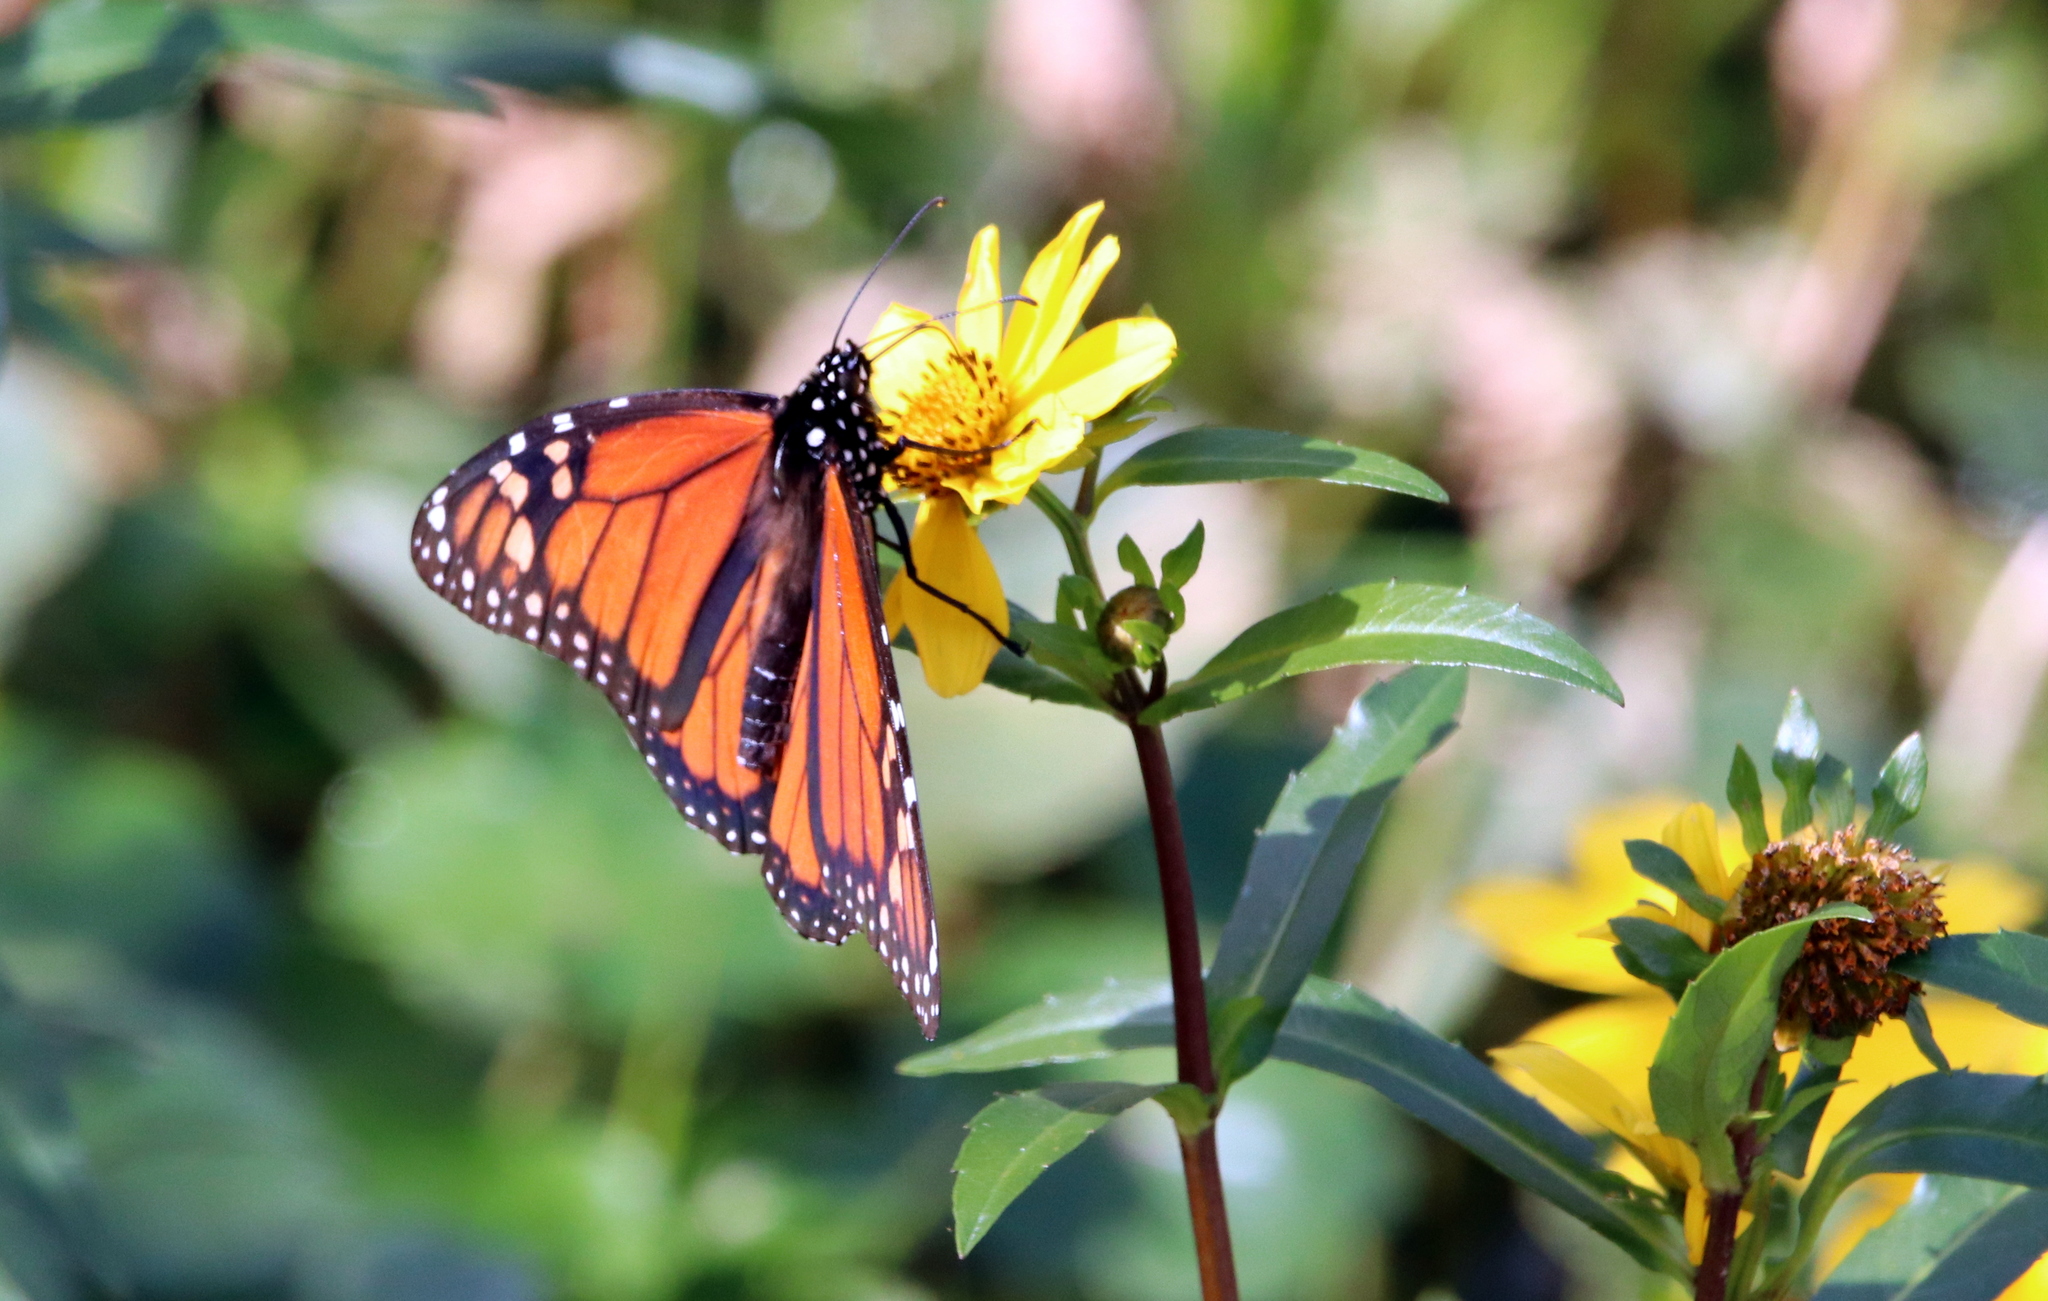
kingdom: Animalia
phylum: Arthropoda
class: Insecta
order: Lepidoptera
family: Nymphalidae
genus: Danaus
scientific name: Danaus plexippus
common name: Monarch
